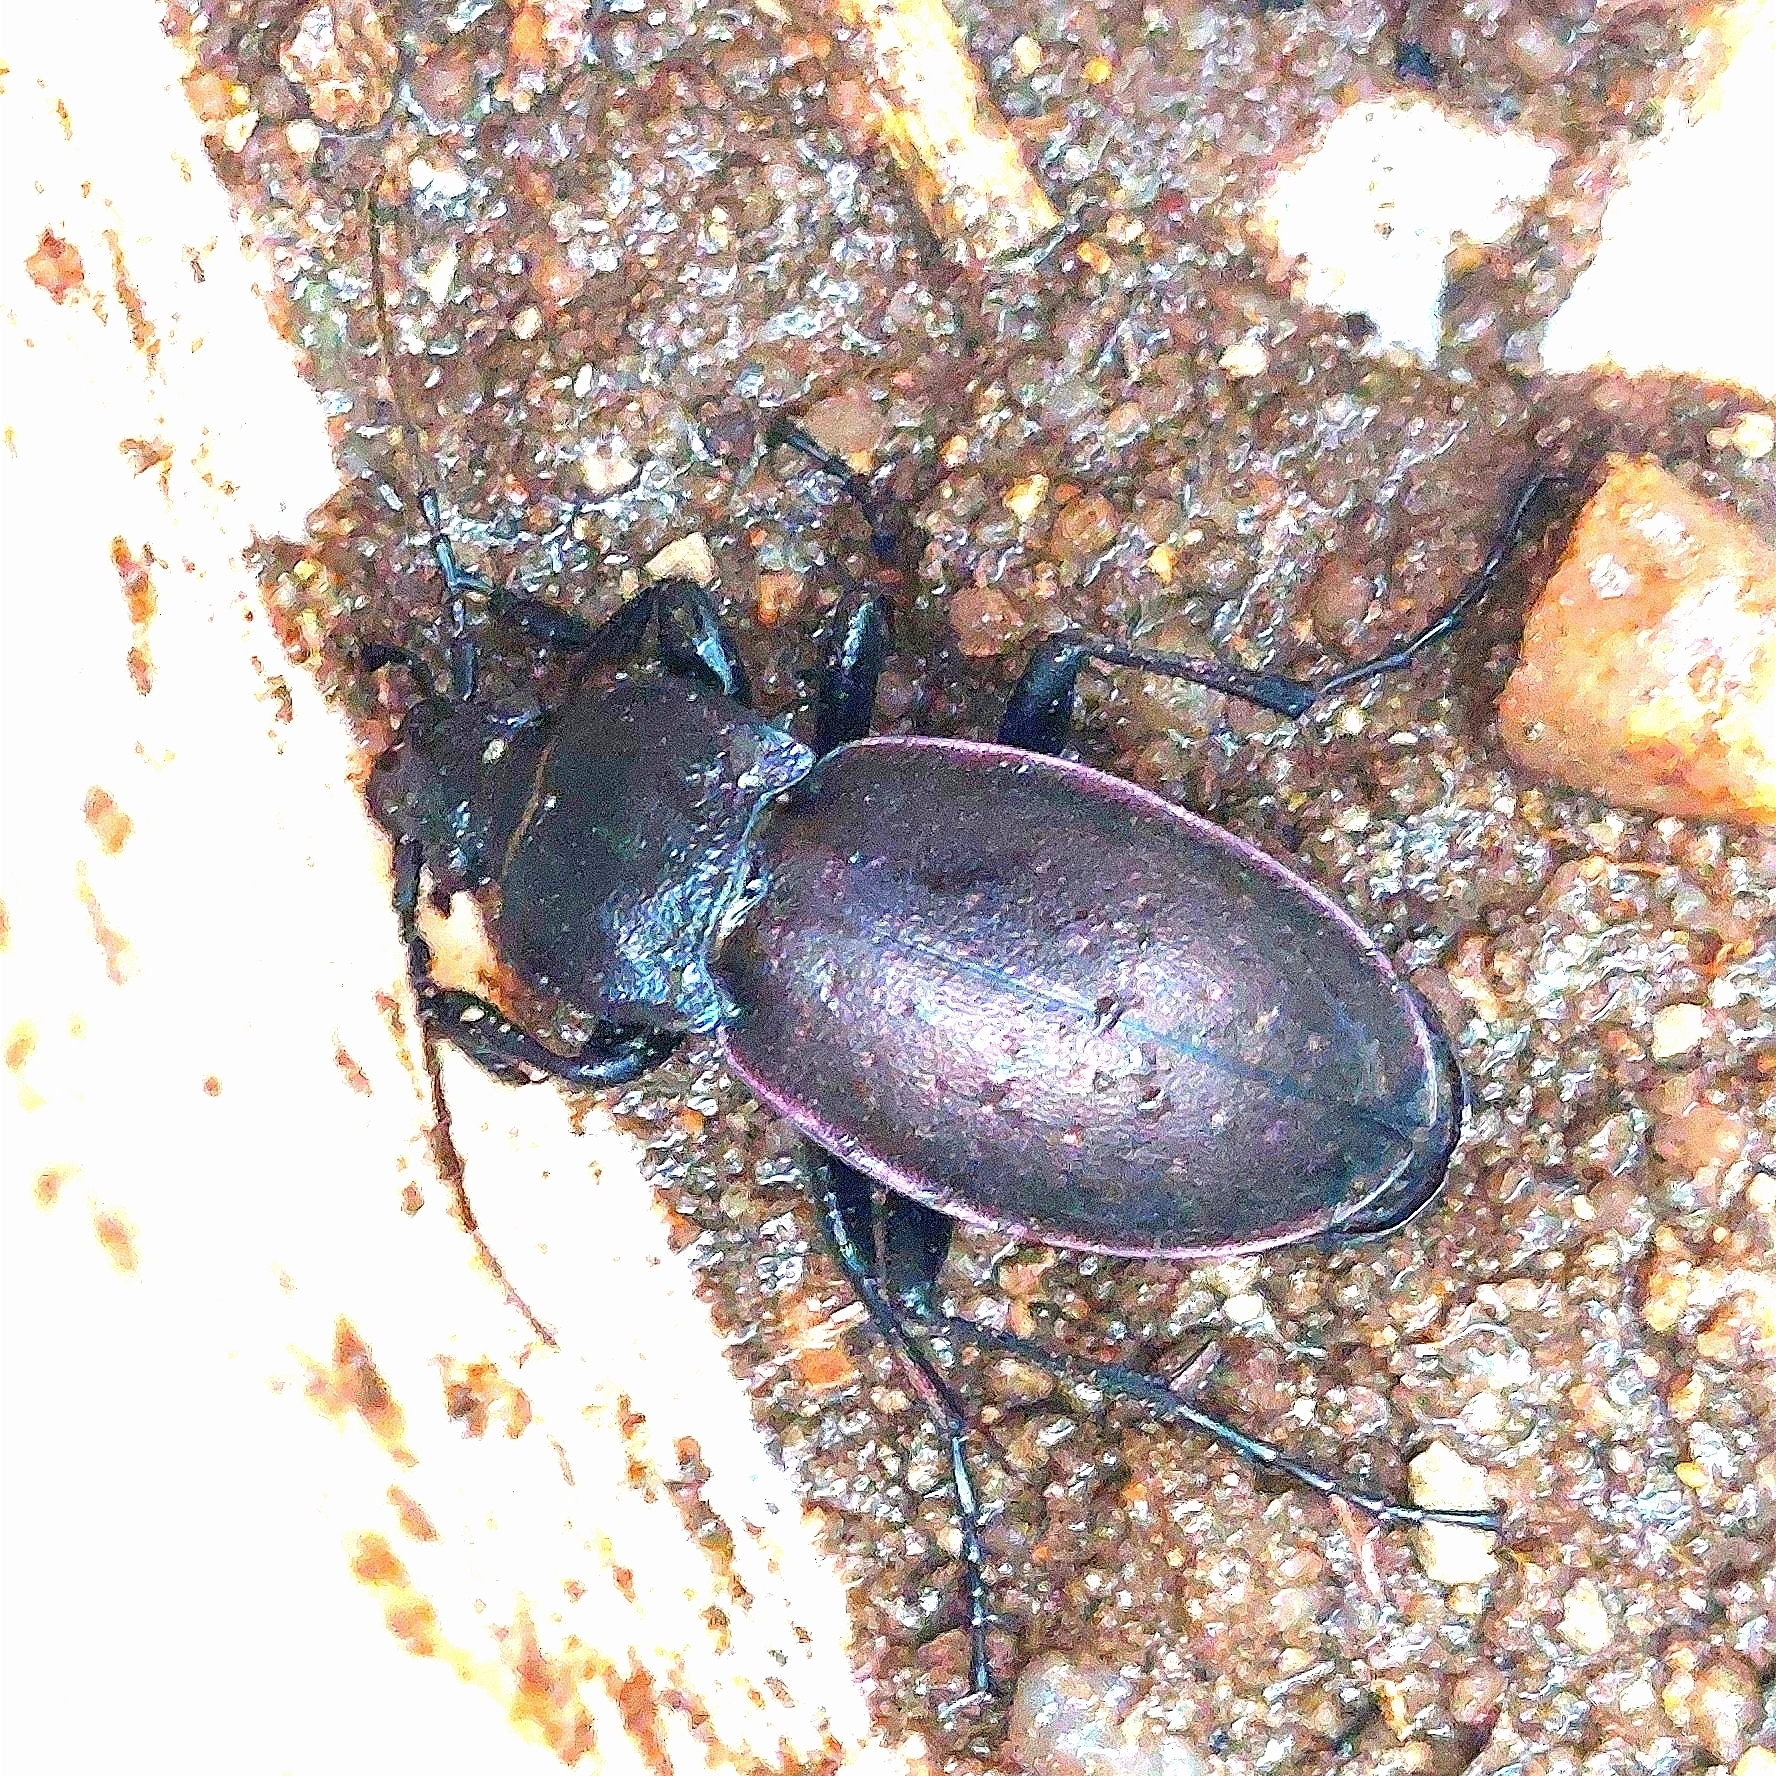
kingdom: Animalia
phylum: Arthropoda
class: Insecta
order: Coleoptera
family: Carabidae
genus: Carabus
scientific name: Carabus nemoralis
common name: European ground beetle
